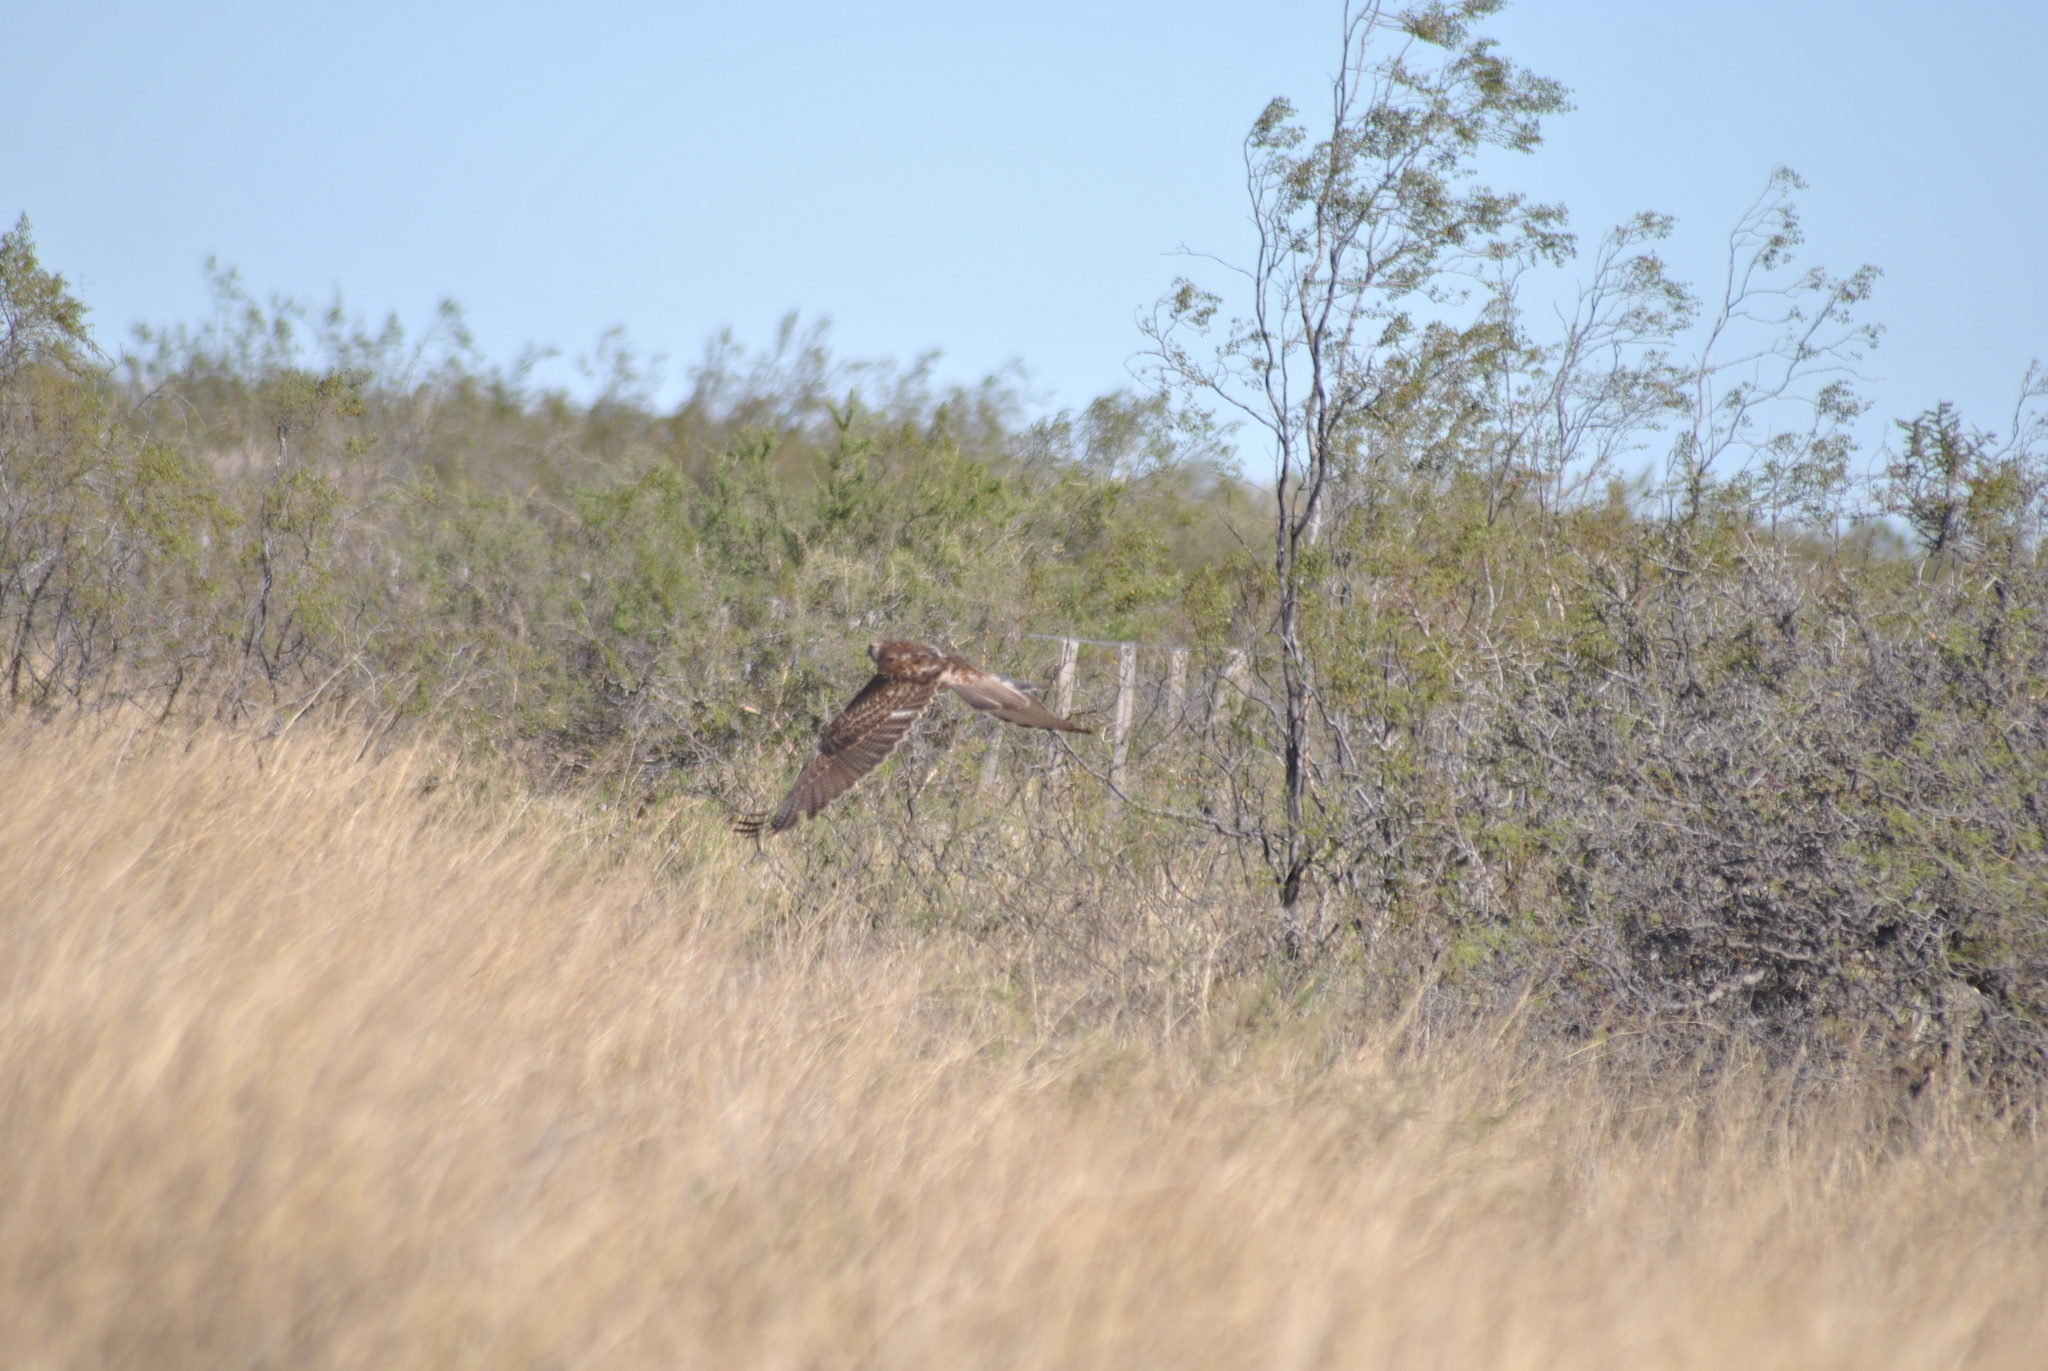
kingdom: Animalia
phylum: Chordata
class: Aves
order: Accipitriformes
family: Accipitridae
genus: Buteo
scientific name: Buteo polyosoma
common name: Variable hawk
